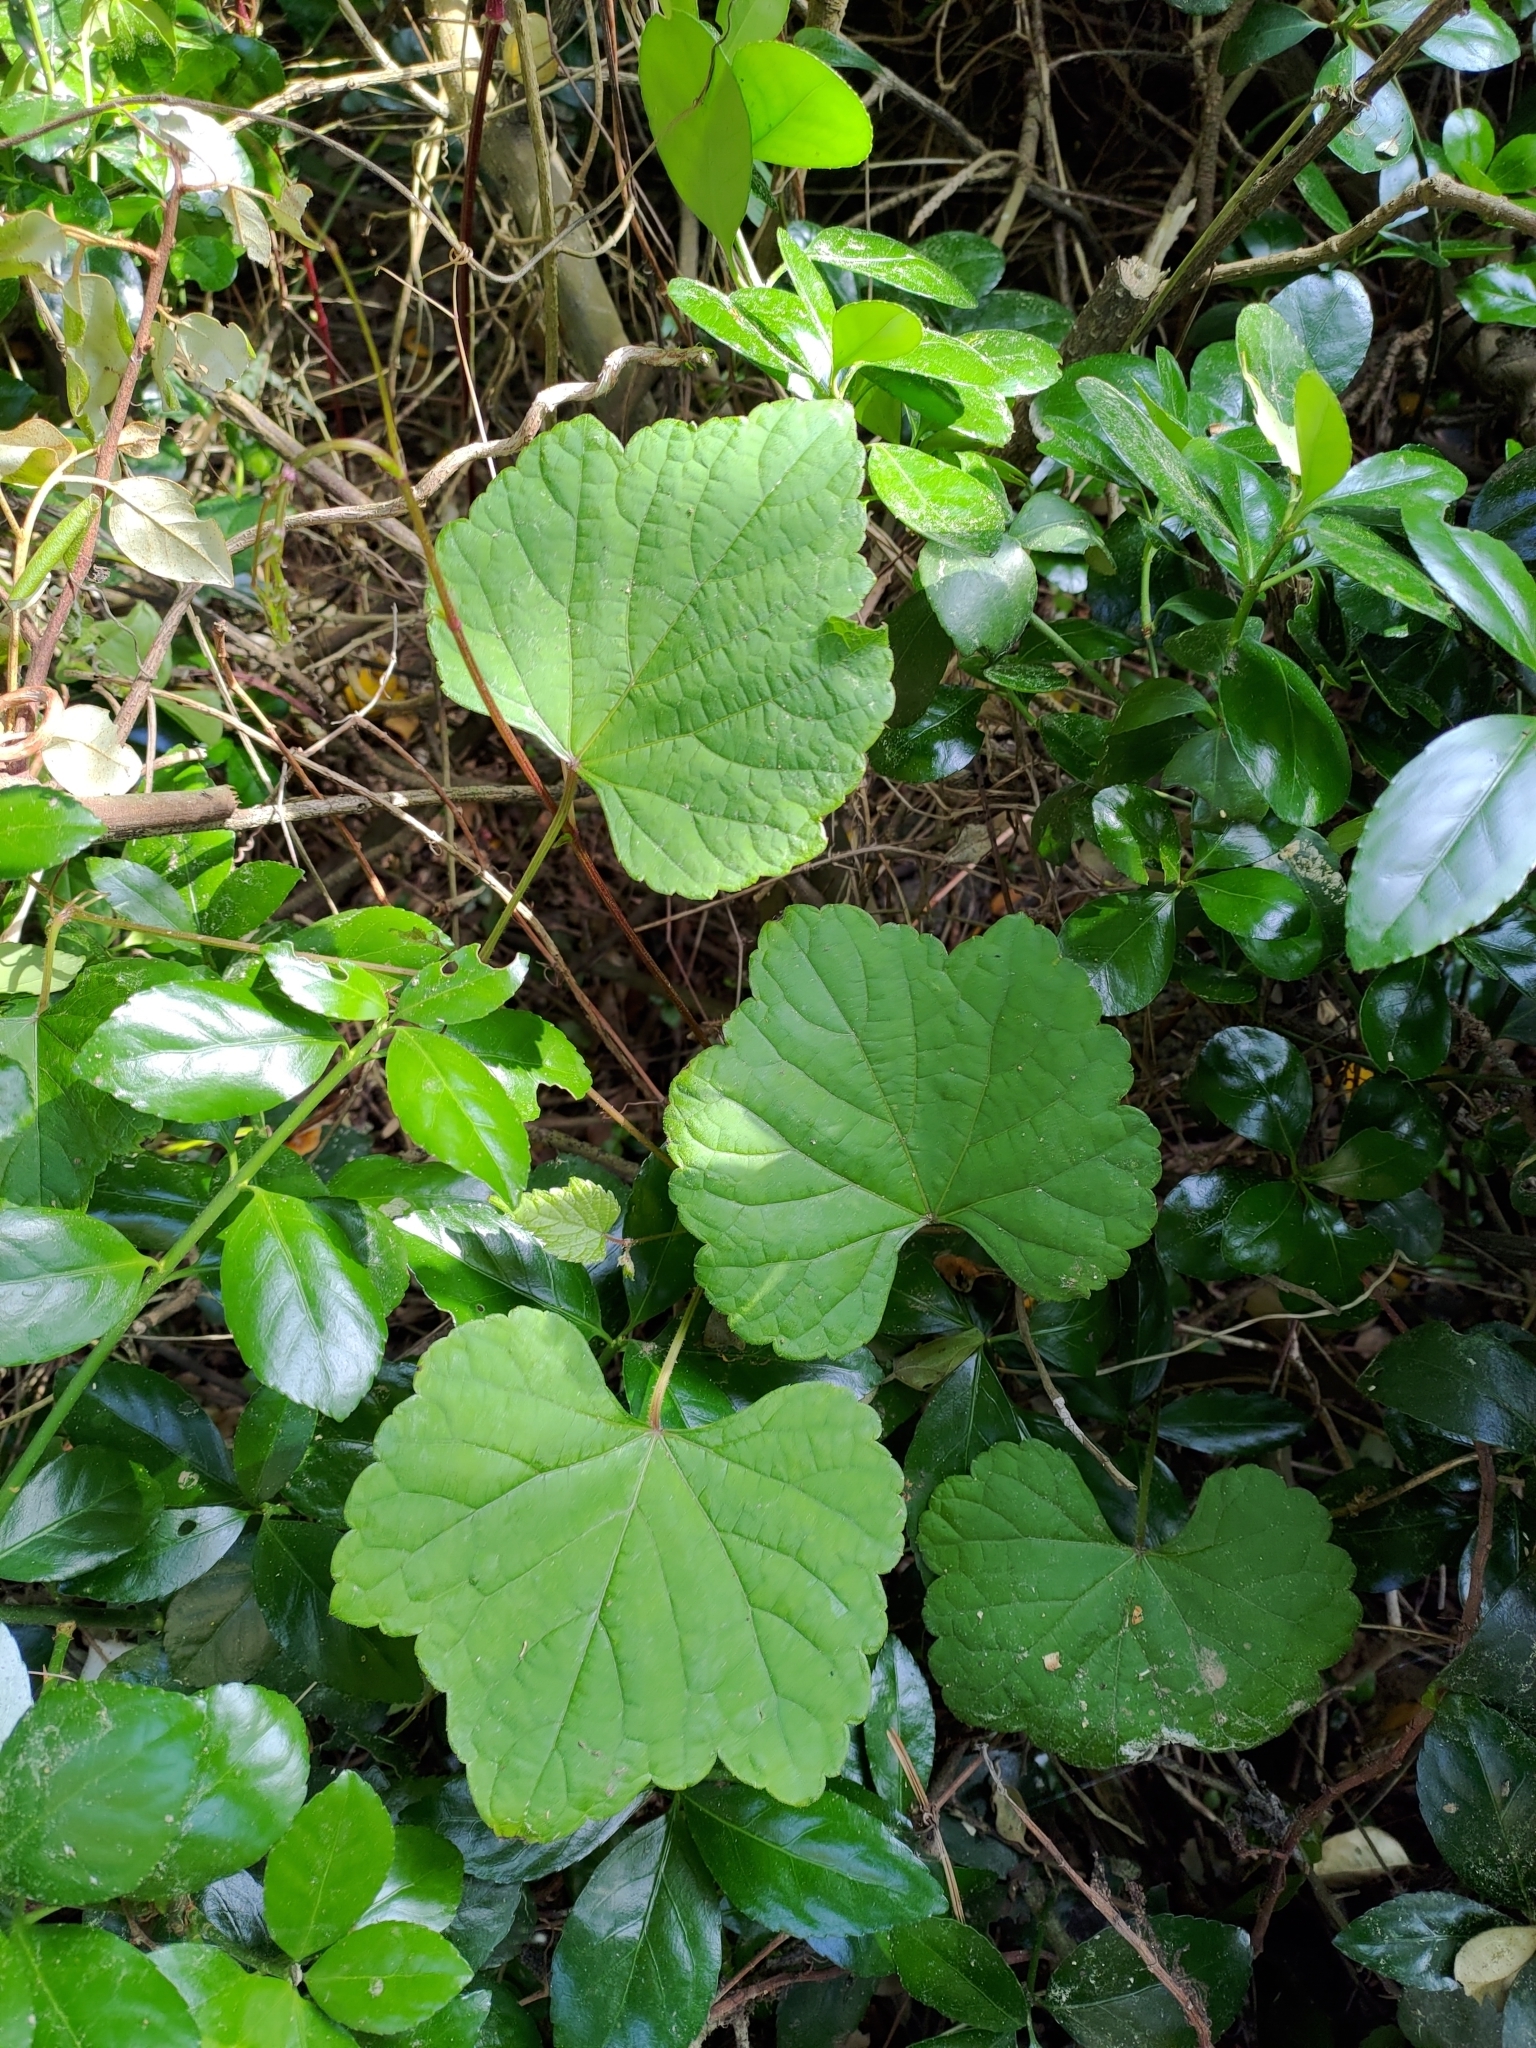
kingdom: Plantae
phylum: Tracheophyta
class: Magnoliopsida
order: Vitales
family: Vitaceae
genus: Ampelopsis
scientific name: Ampelopsis glandulosa
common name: Amur peppervine
